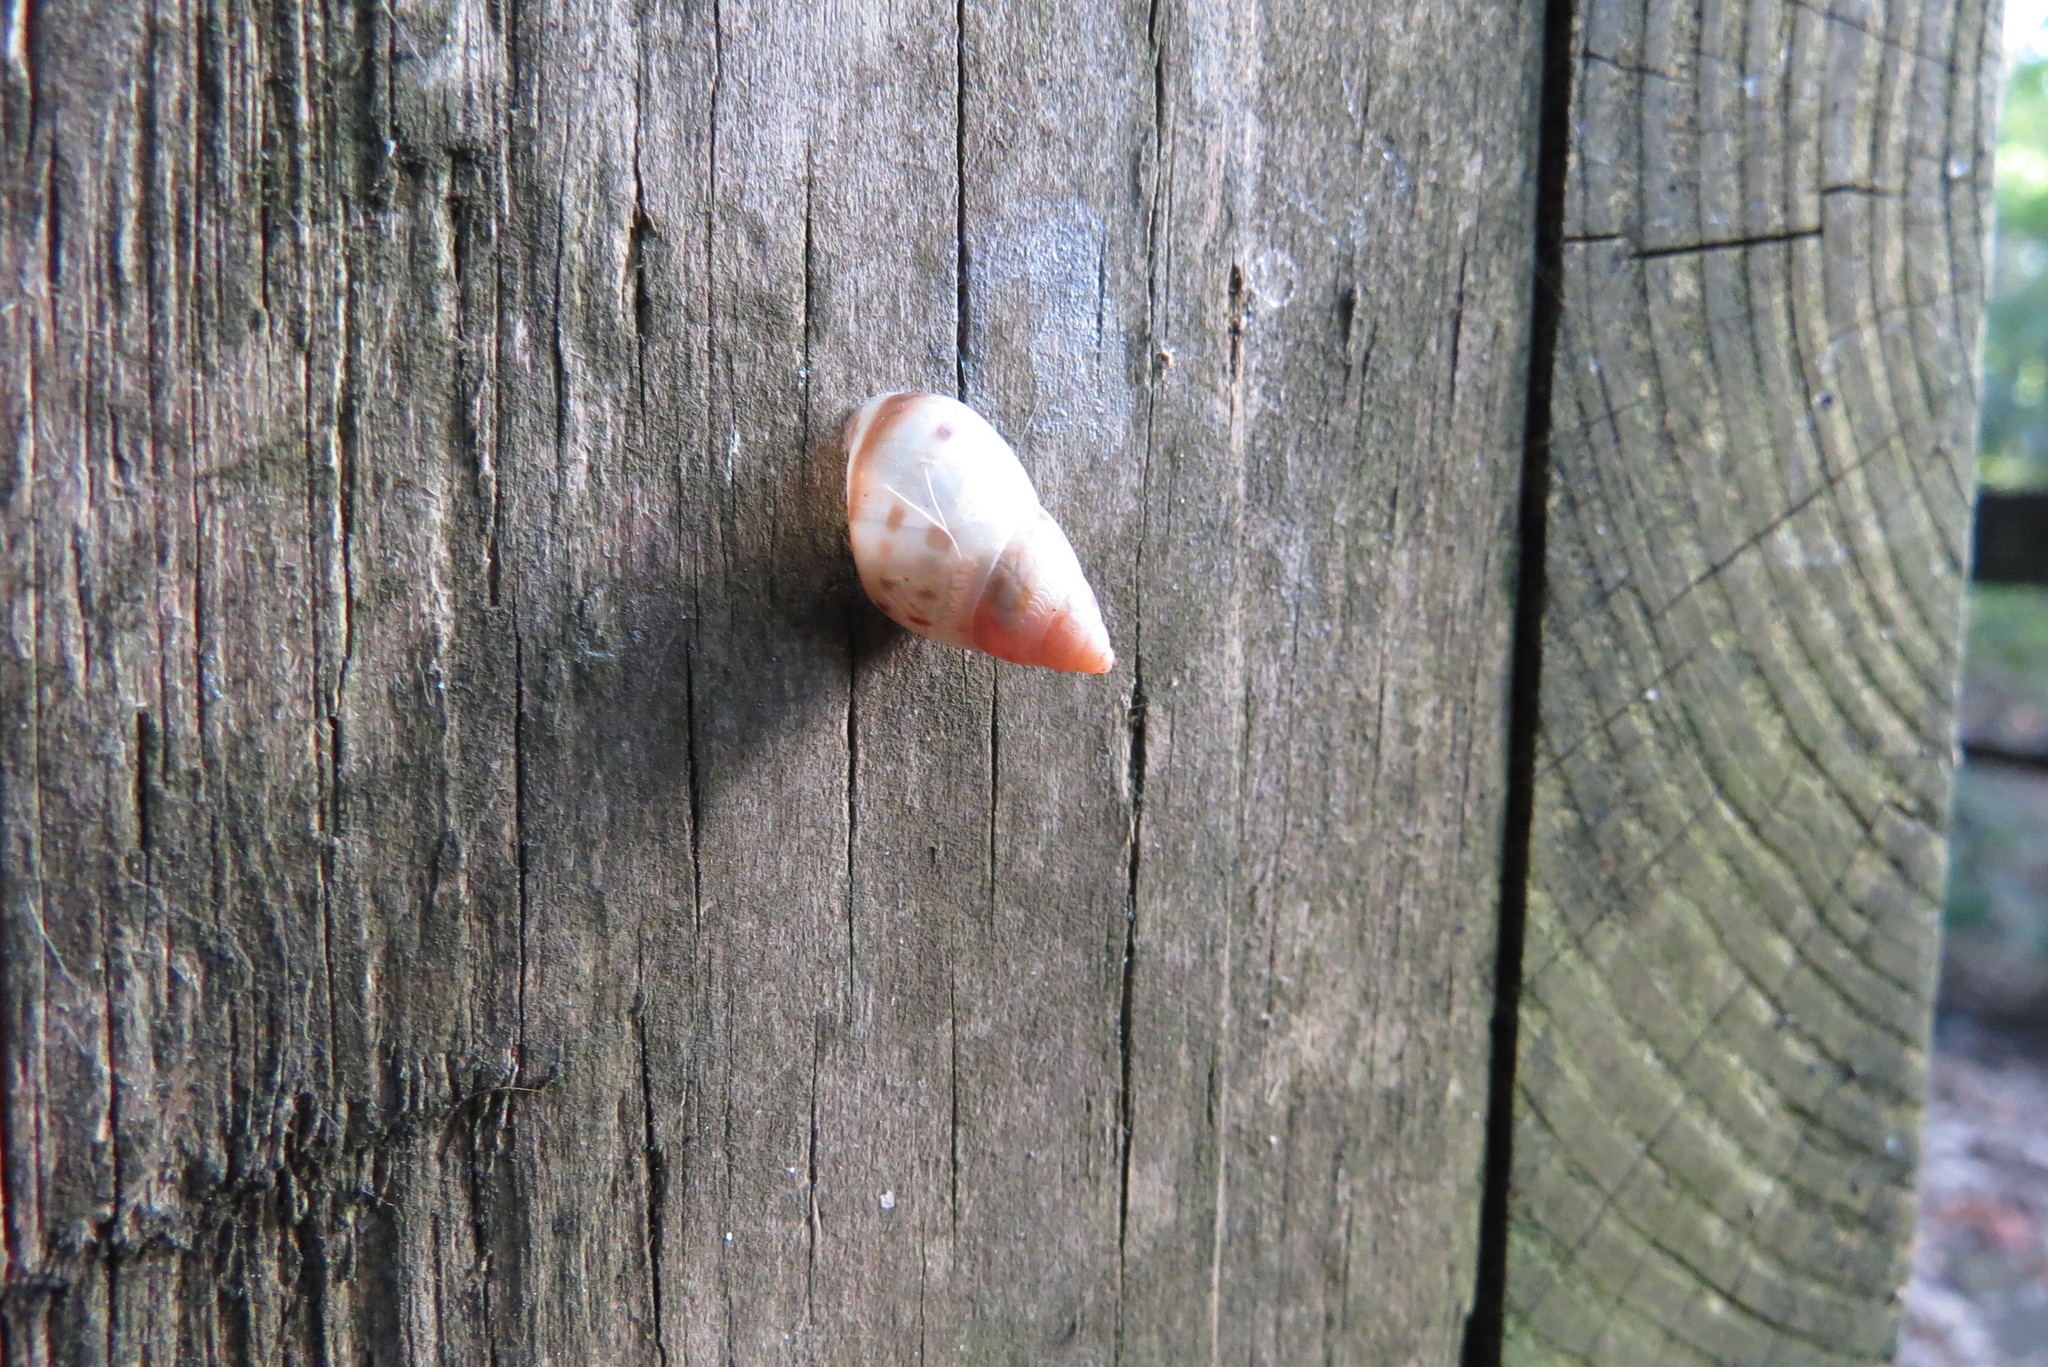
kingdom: Animalia
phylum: Mollusca
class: Gastropoda
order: Stylommatophora
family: Bulimulidae
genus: Drymaeus
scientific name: Drymaeus dormani
